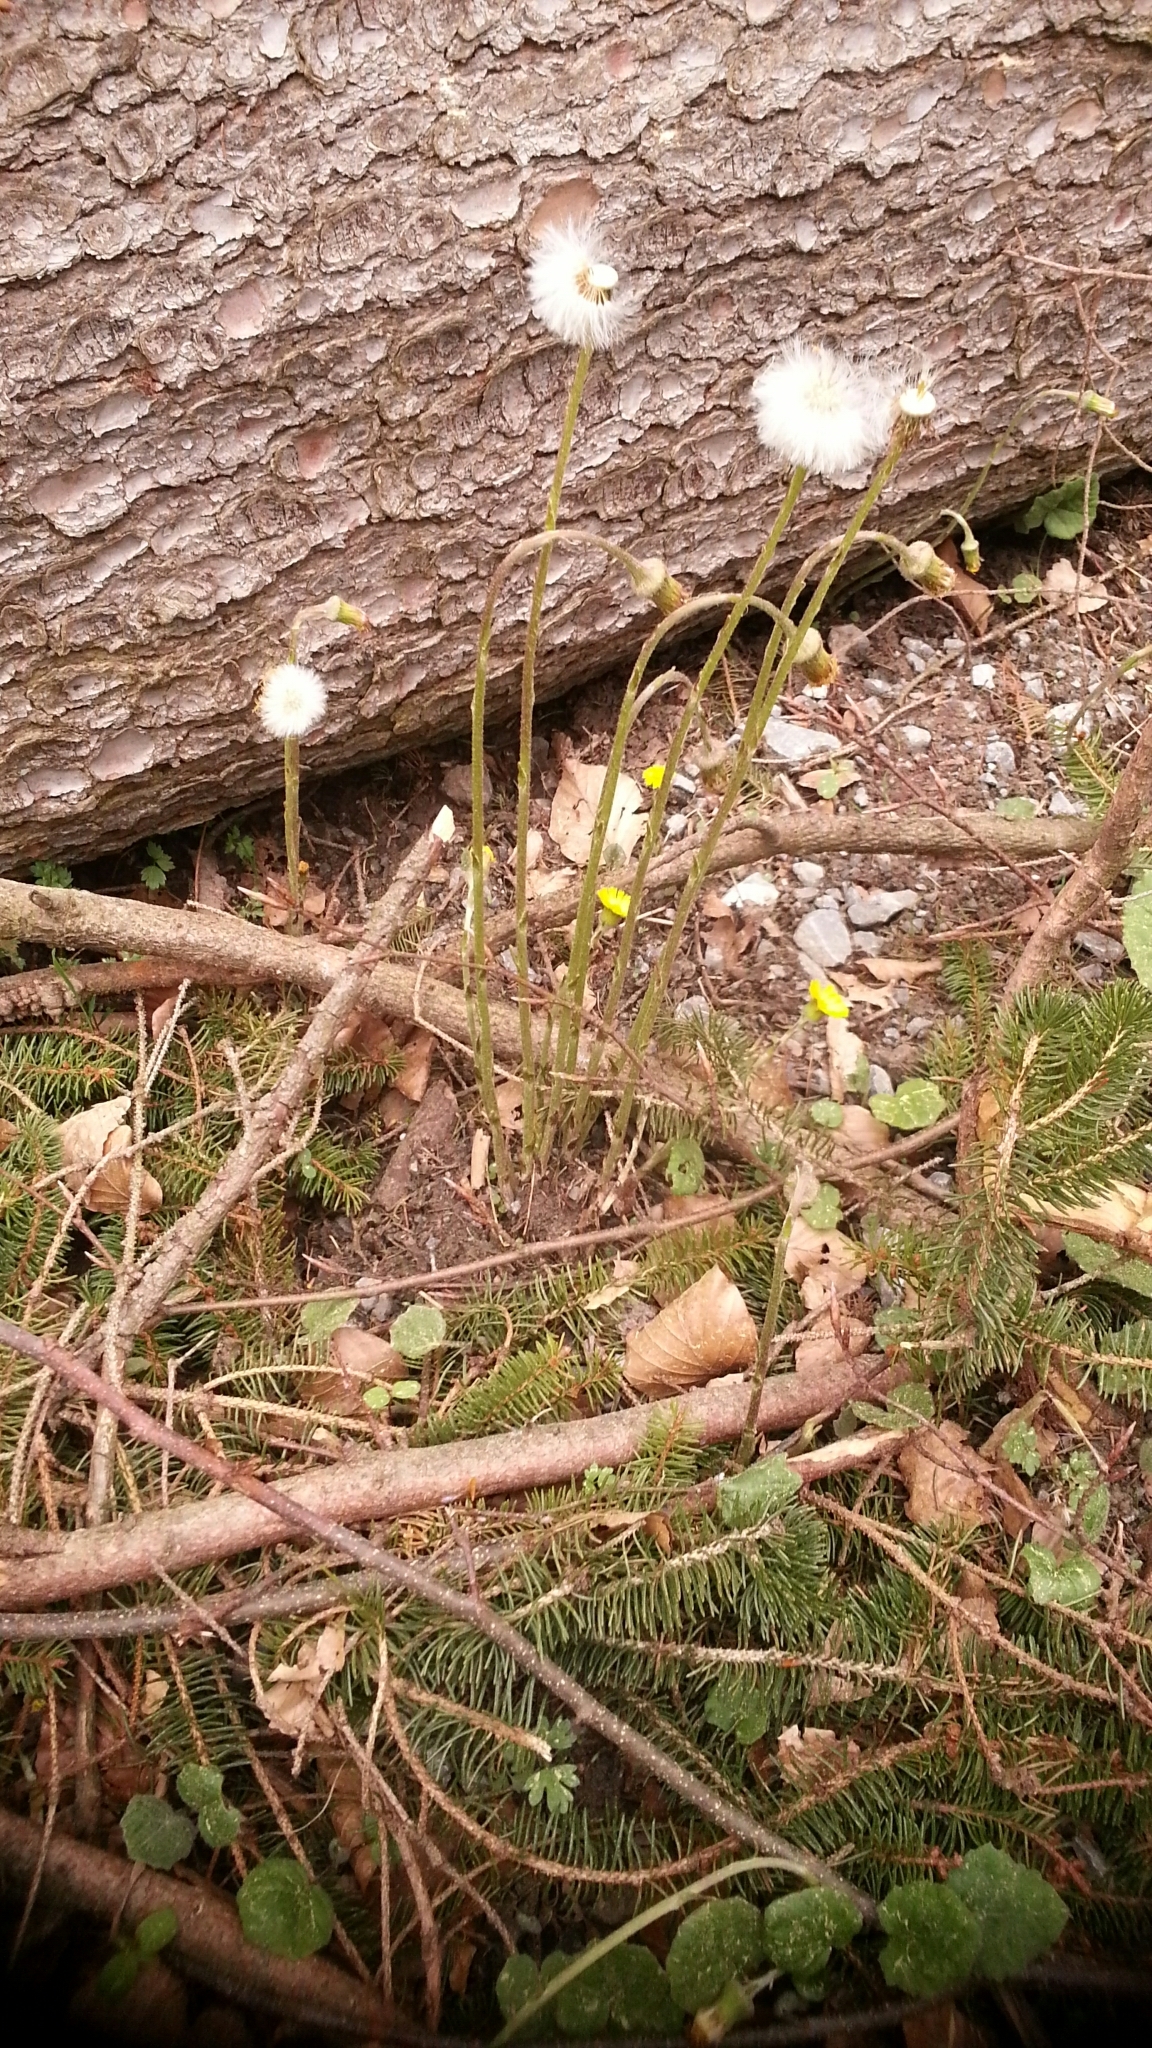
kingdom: Plantae
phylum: Tracheophyta
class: Magnoliopsida
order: Asterales
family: Asteraceae
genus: Tussilago
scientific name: Tussilago farfara
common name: Coltsfoot
